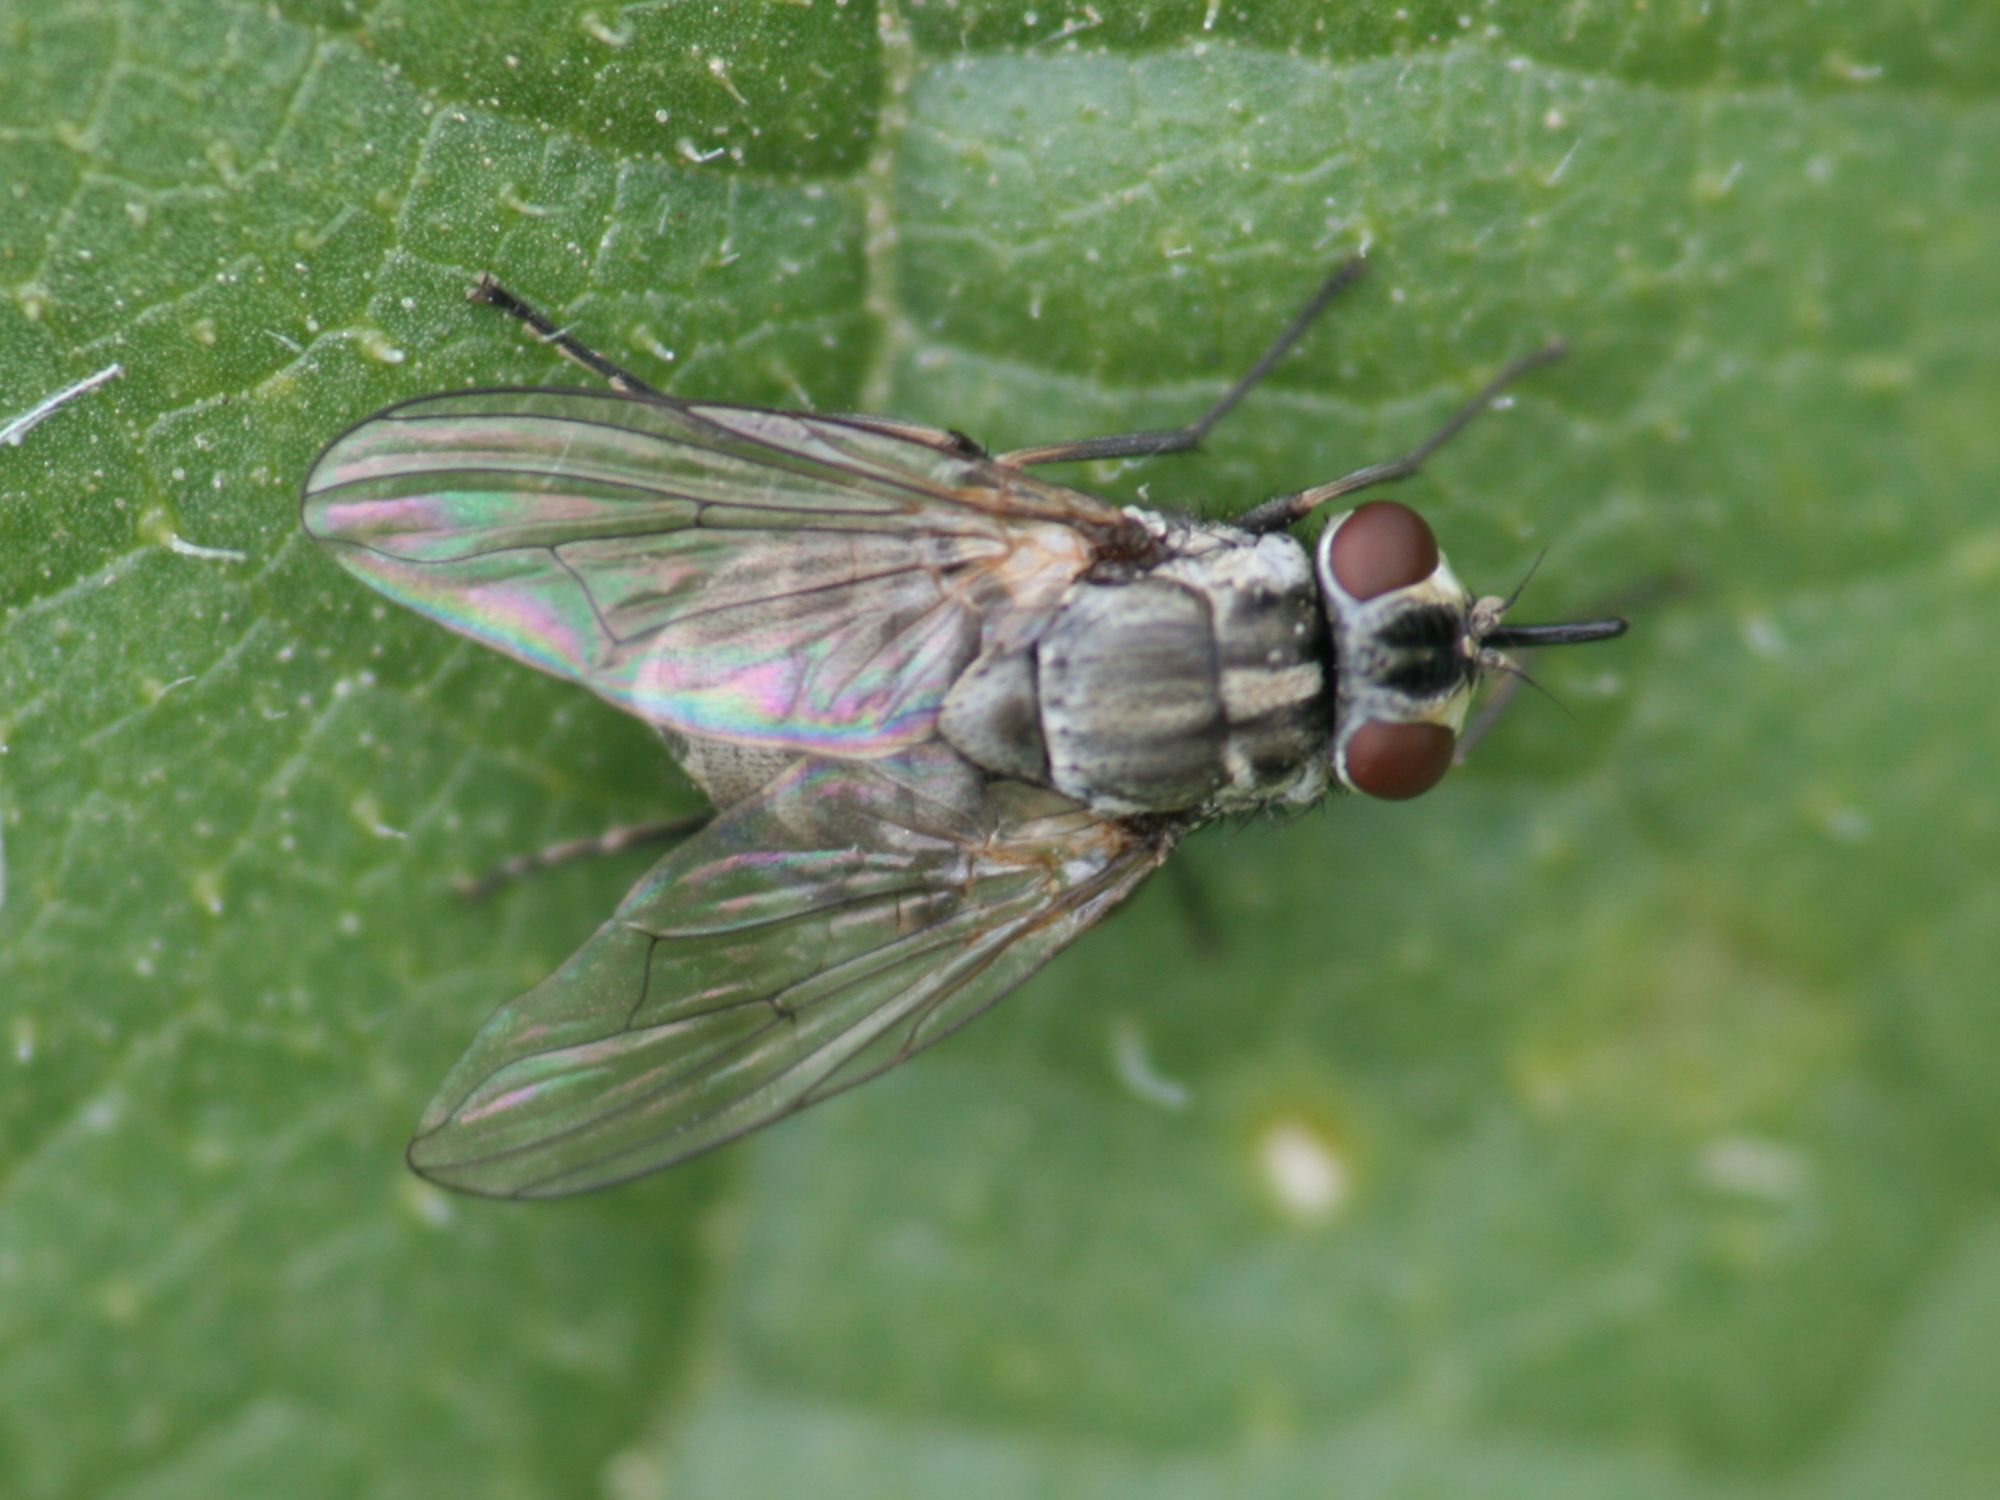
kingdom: Animalia
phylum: Arthropoda
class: Insecta
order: Diptera
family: Muscidae
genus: Stomoxys
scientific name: Stomoxys calcitrans
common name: Stable fly
